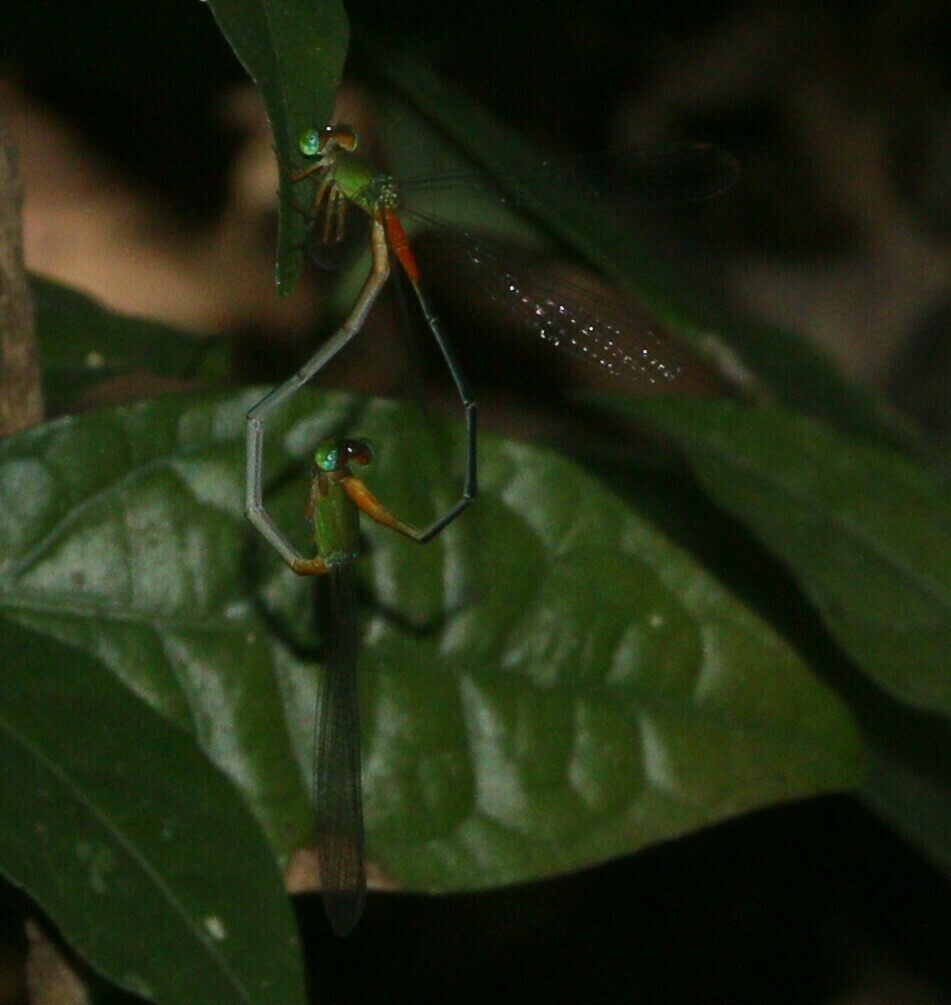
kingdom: Animalia
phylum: Arthropoda
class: Insecta
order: Odonata
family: Coenagrionidae
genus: Ceriagrion
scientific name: Ceriagrion cerinorubellum
